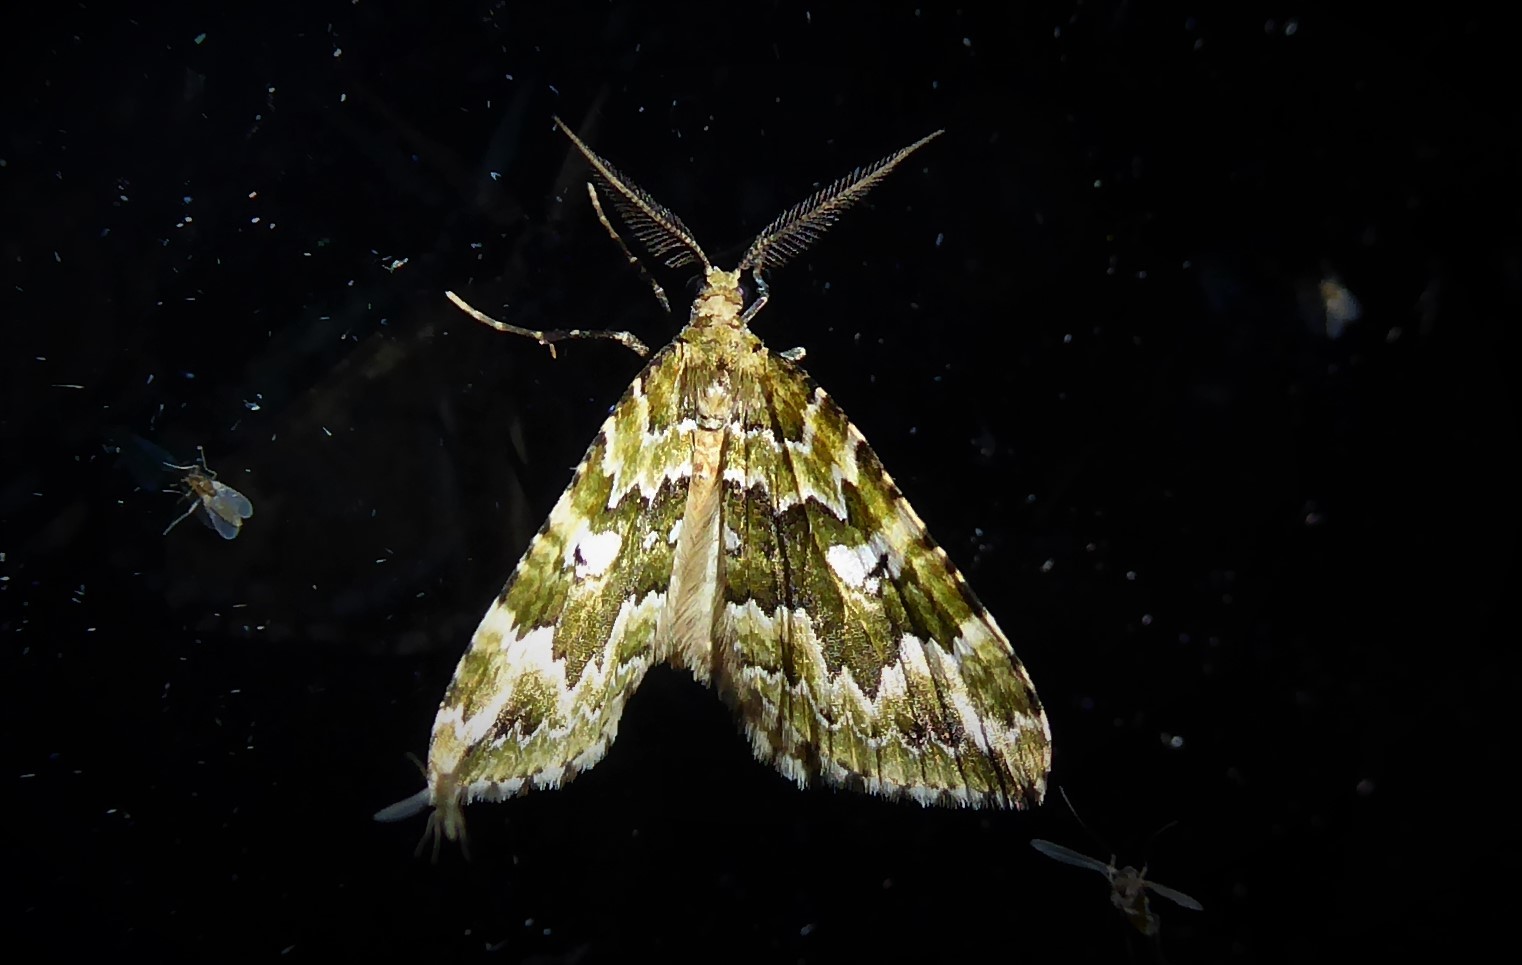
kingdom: Animalia
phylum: Arthropoda
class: Insecta
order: Lepidoptera
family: Geometridae
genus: Asaphodes
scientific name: Asaphodes beata
